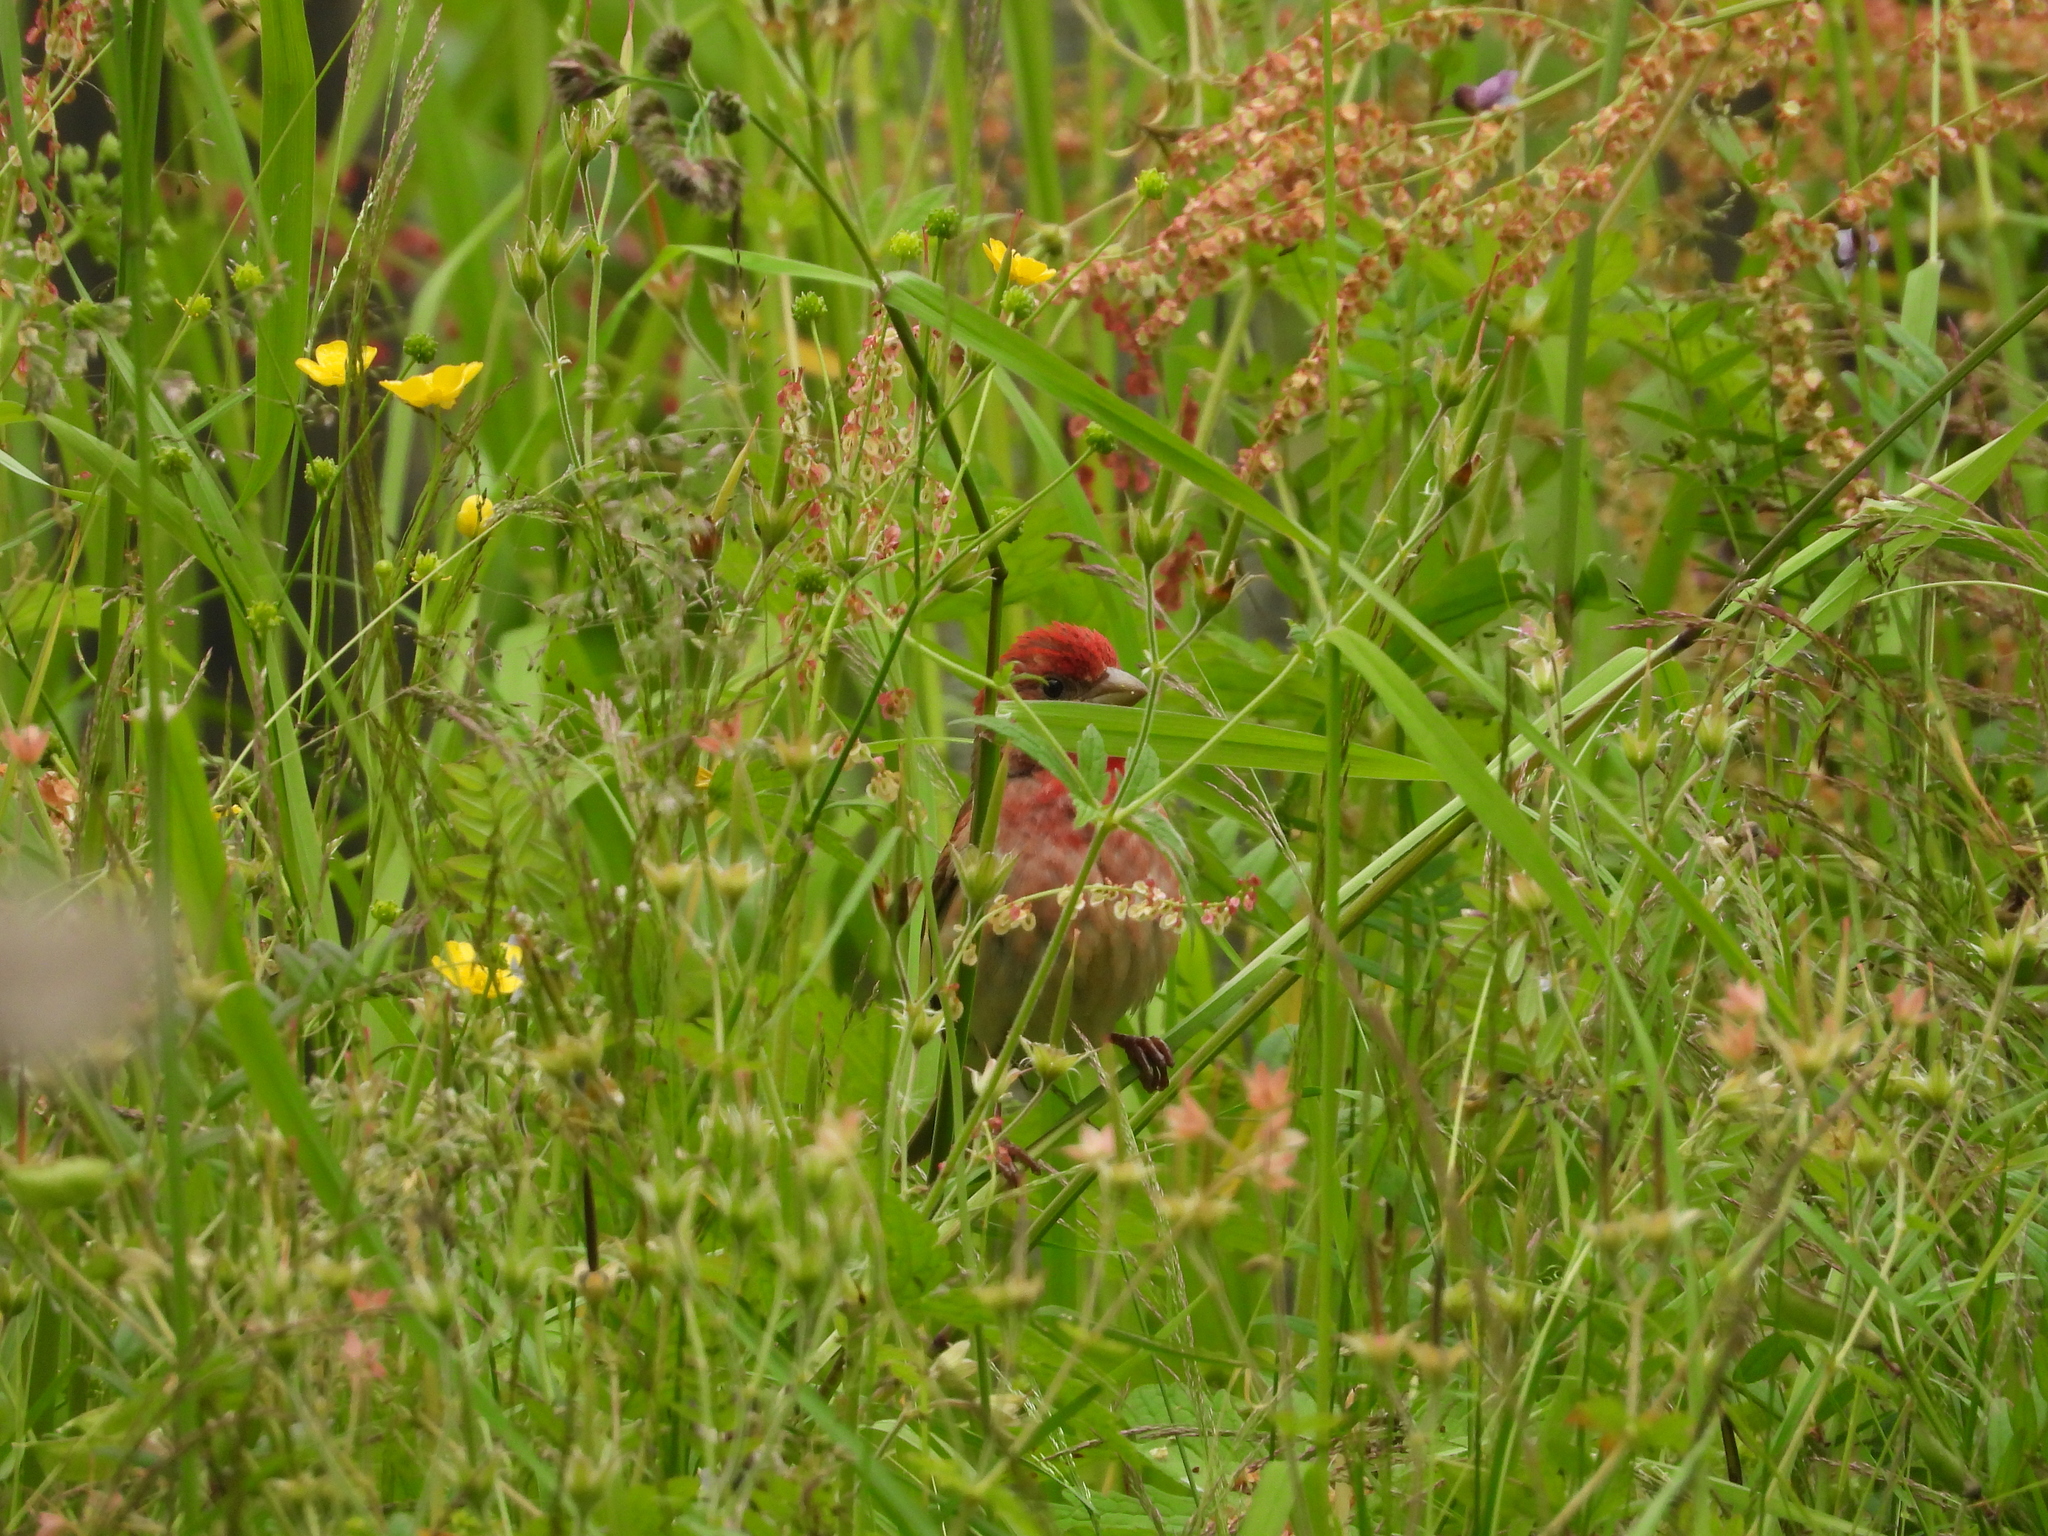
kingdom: Animalia
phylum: Chordata
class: Aves
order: Passeriformes
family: Fringillidae
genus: Carpodacus
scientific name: Carpodacus erythrinus
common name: Common rosefinch
